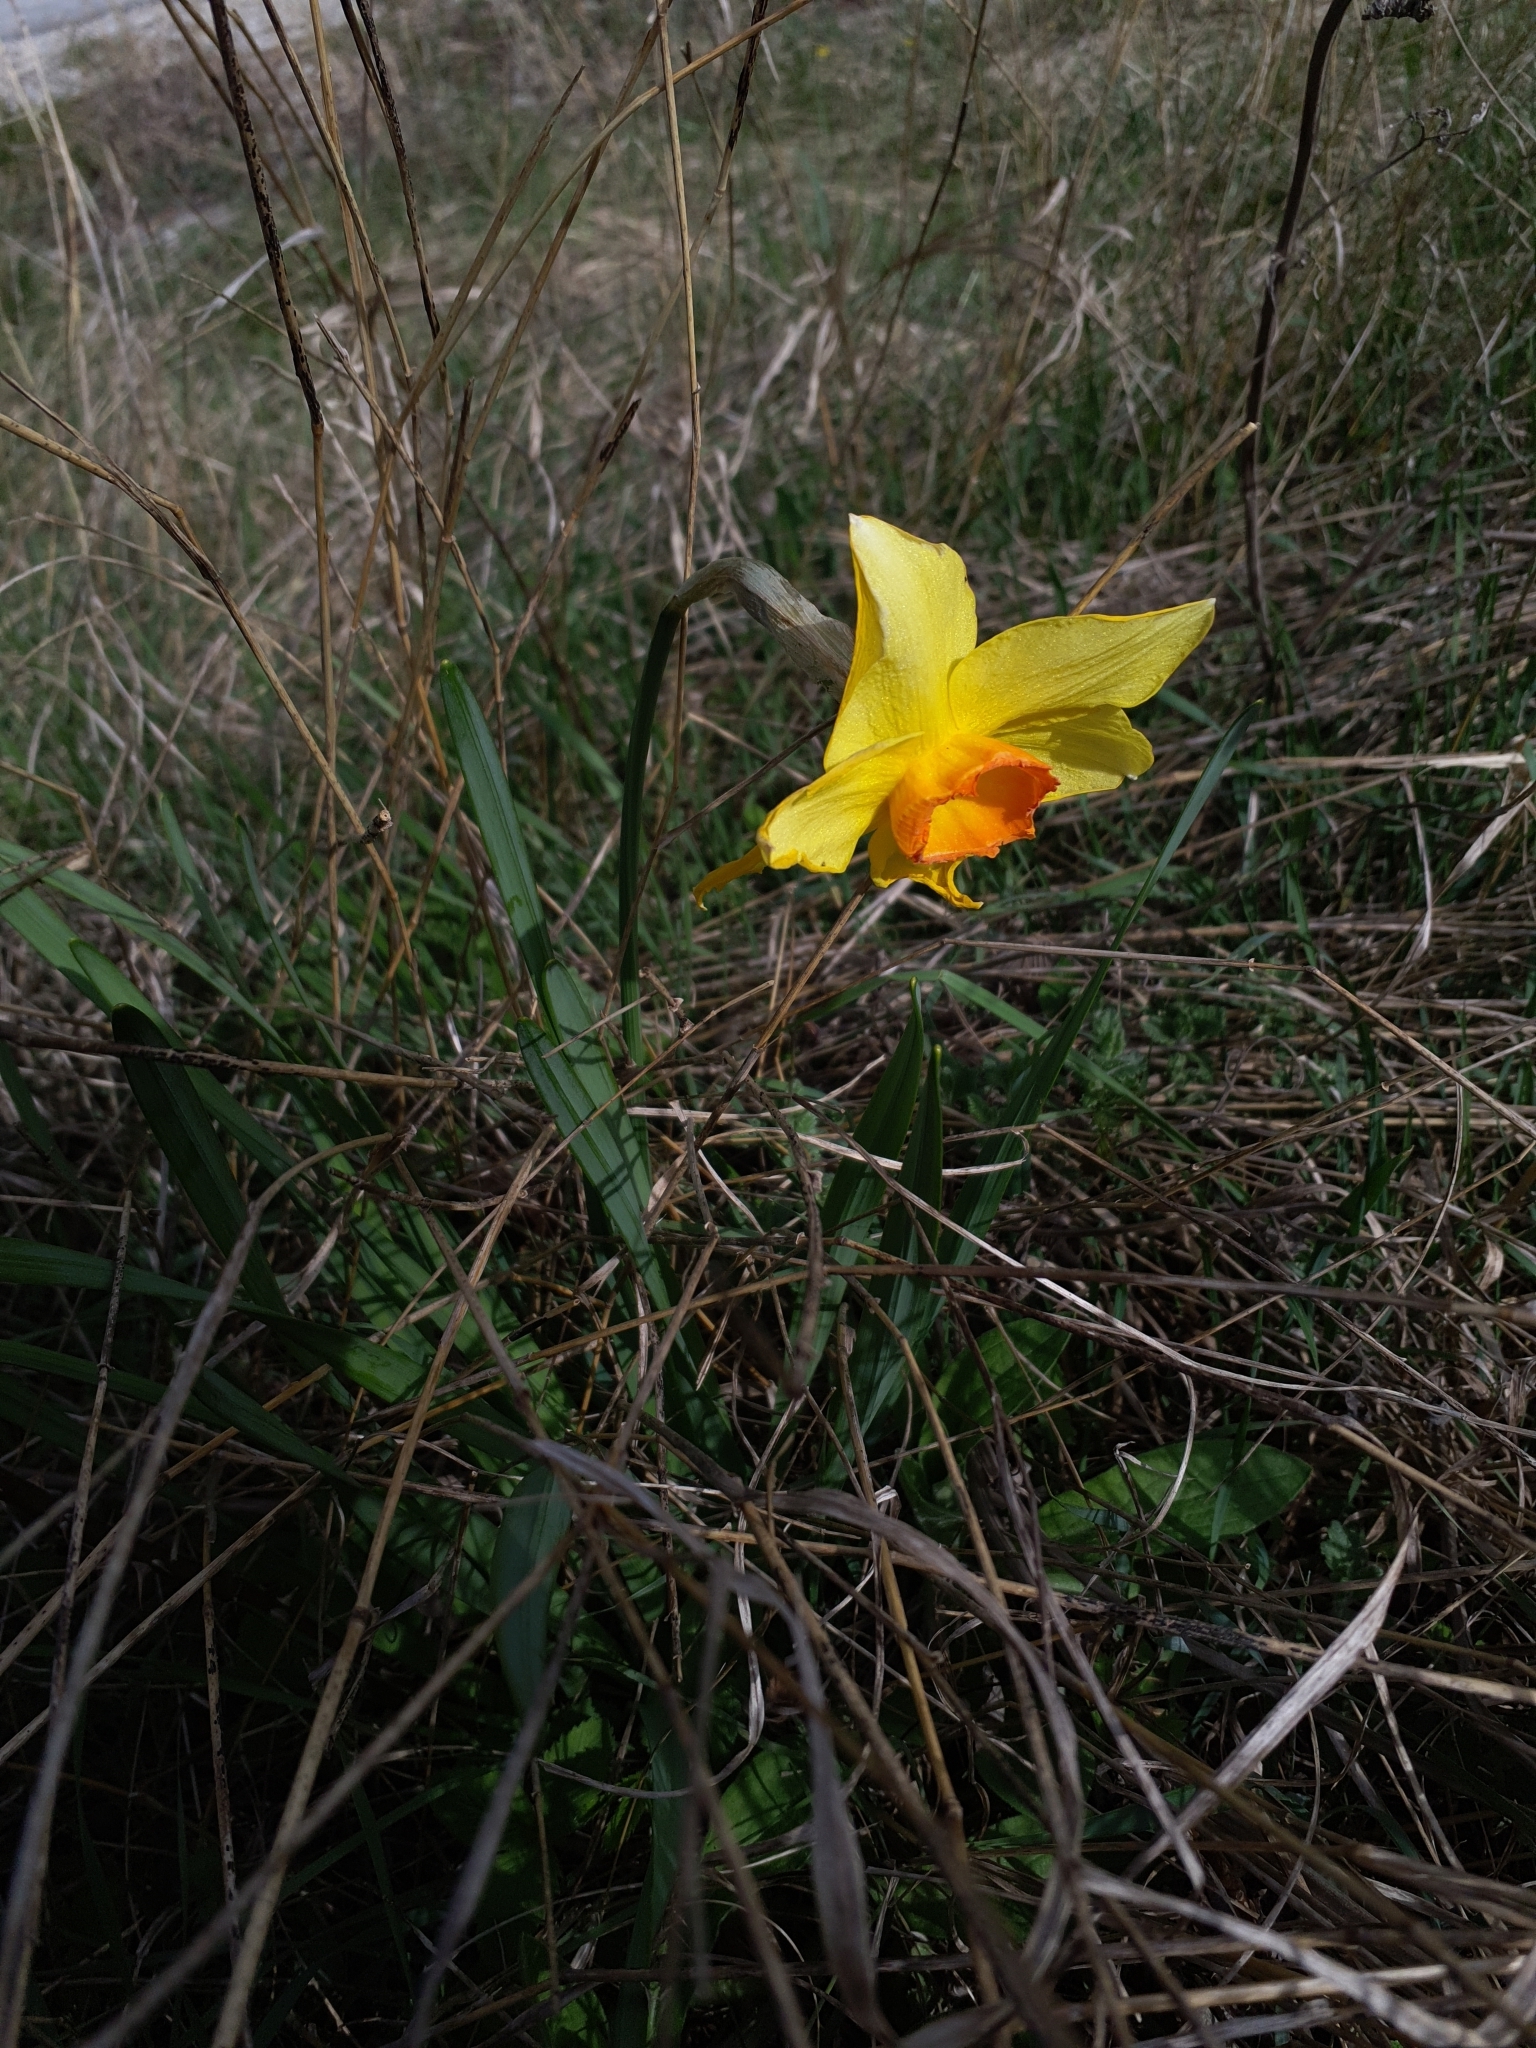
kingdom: Plantae
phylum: Tracheophyta
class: Liliopsida
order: Asparagales
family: Amaryllidaceae
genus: Narcissus
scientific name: Narcissus incomparabilis
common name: Nonesuch daffodil
